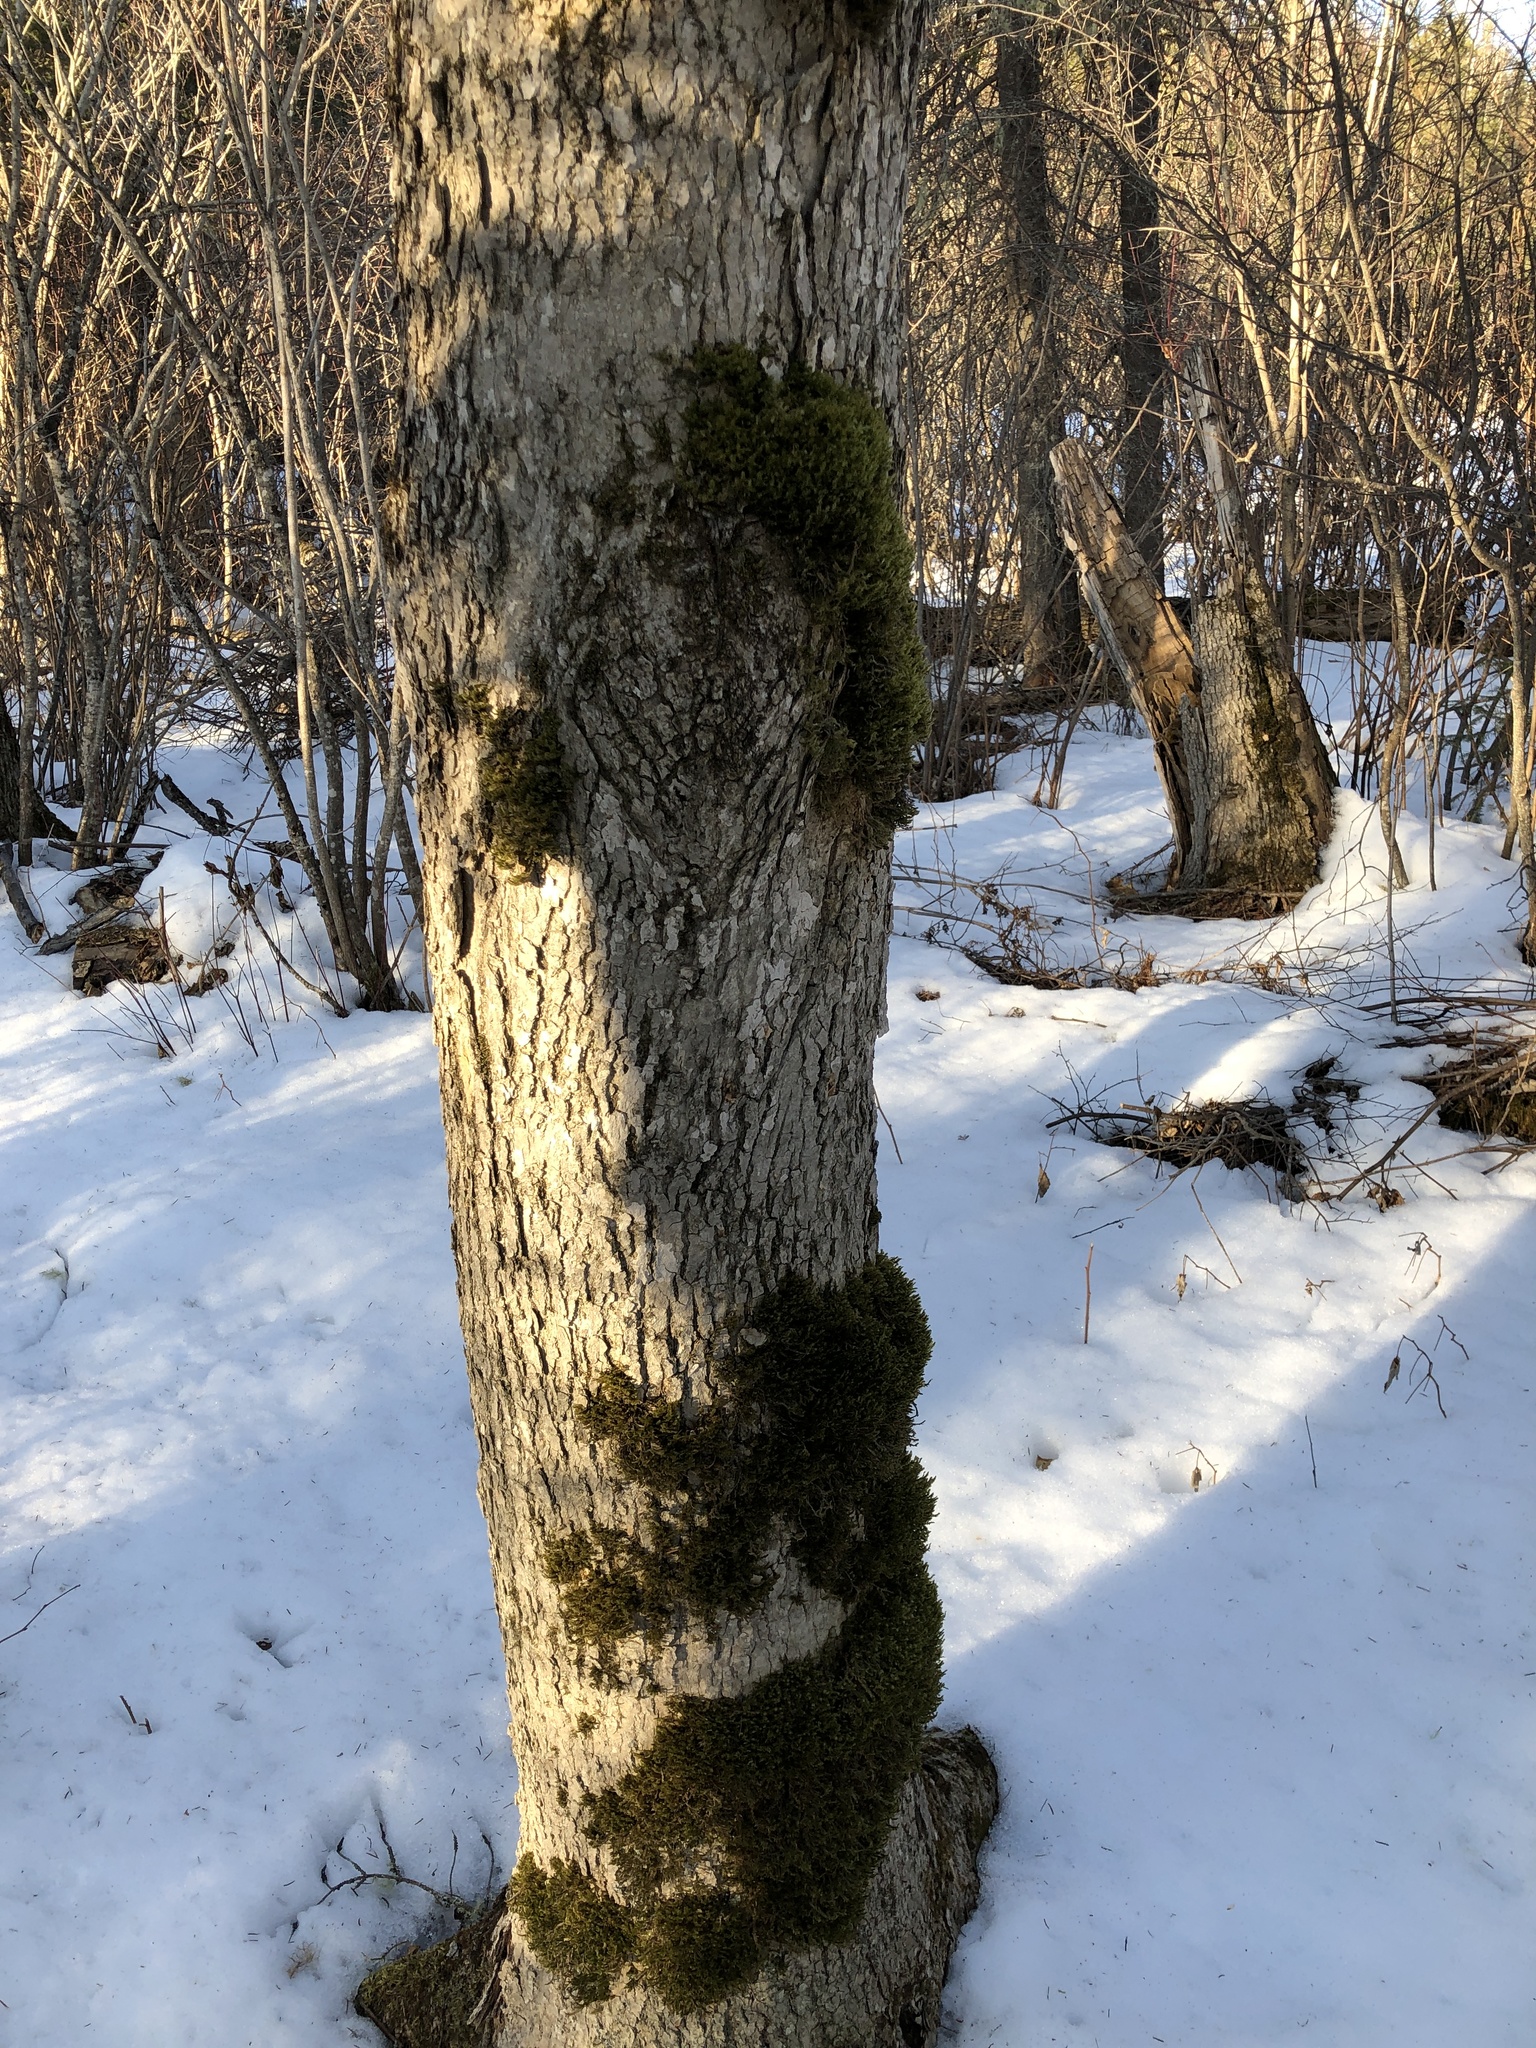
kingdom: Plantae
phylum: Tracheophyta
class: Magnoliopsida
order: Lamiales
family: Oleaceae
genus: Fraxinus
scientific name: Fraxinus nigra
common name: Black ash
